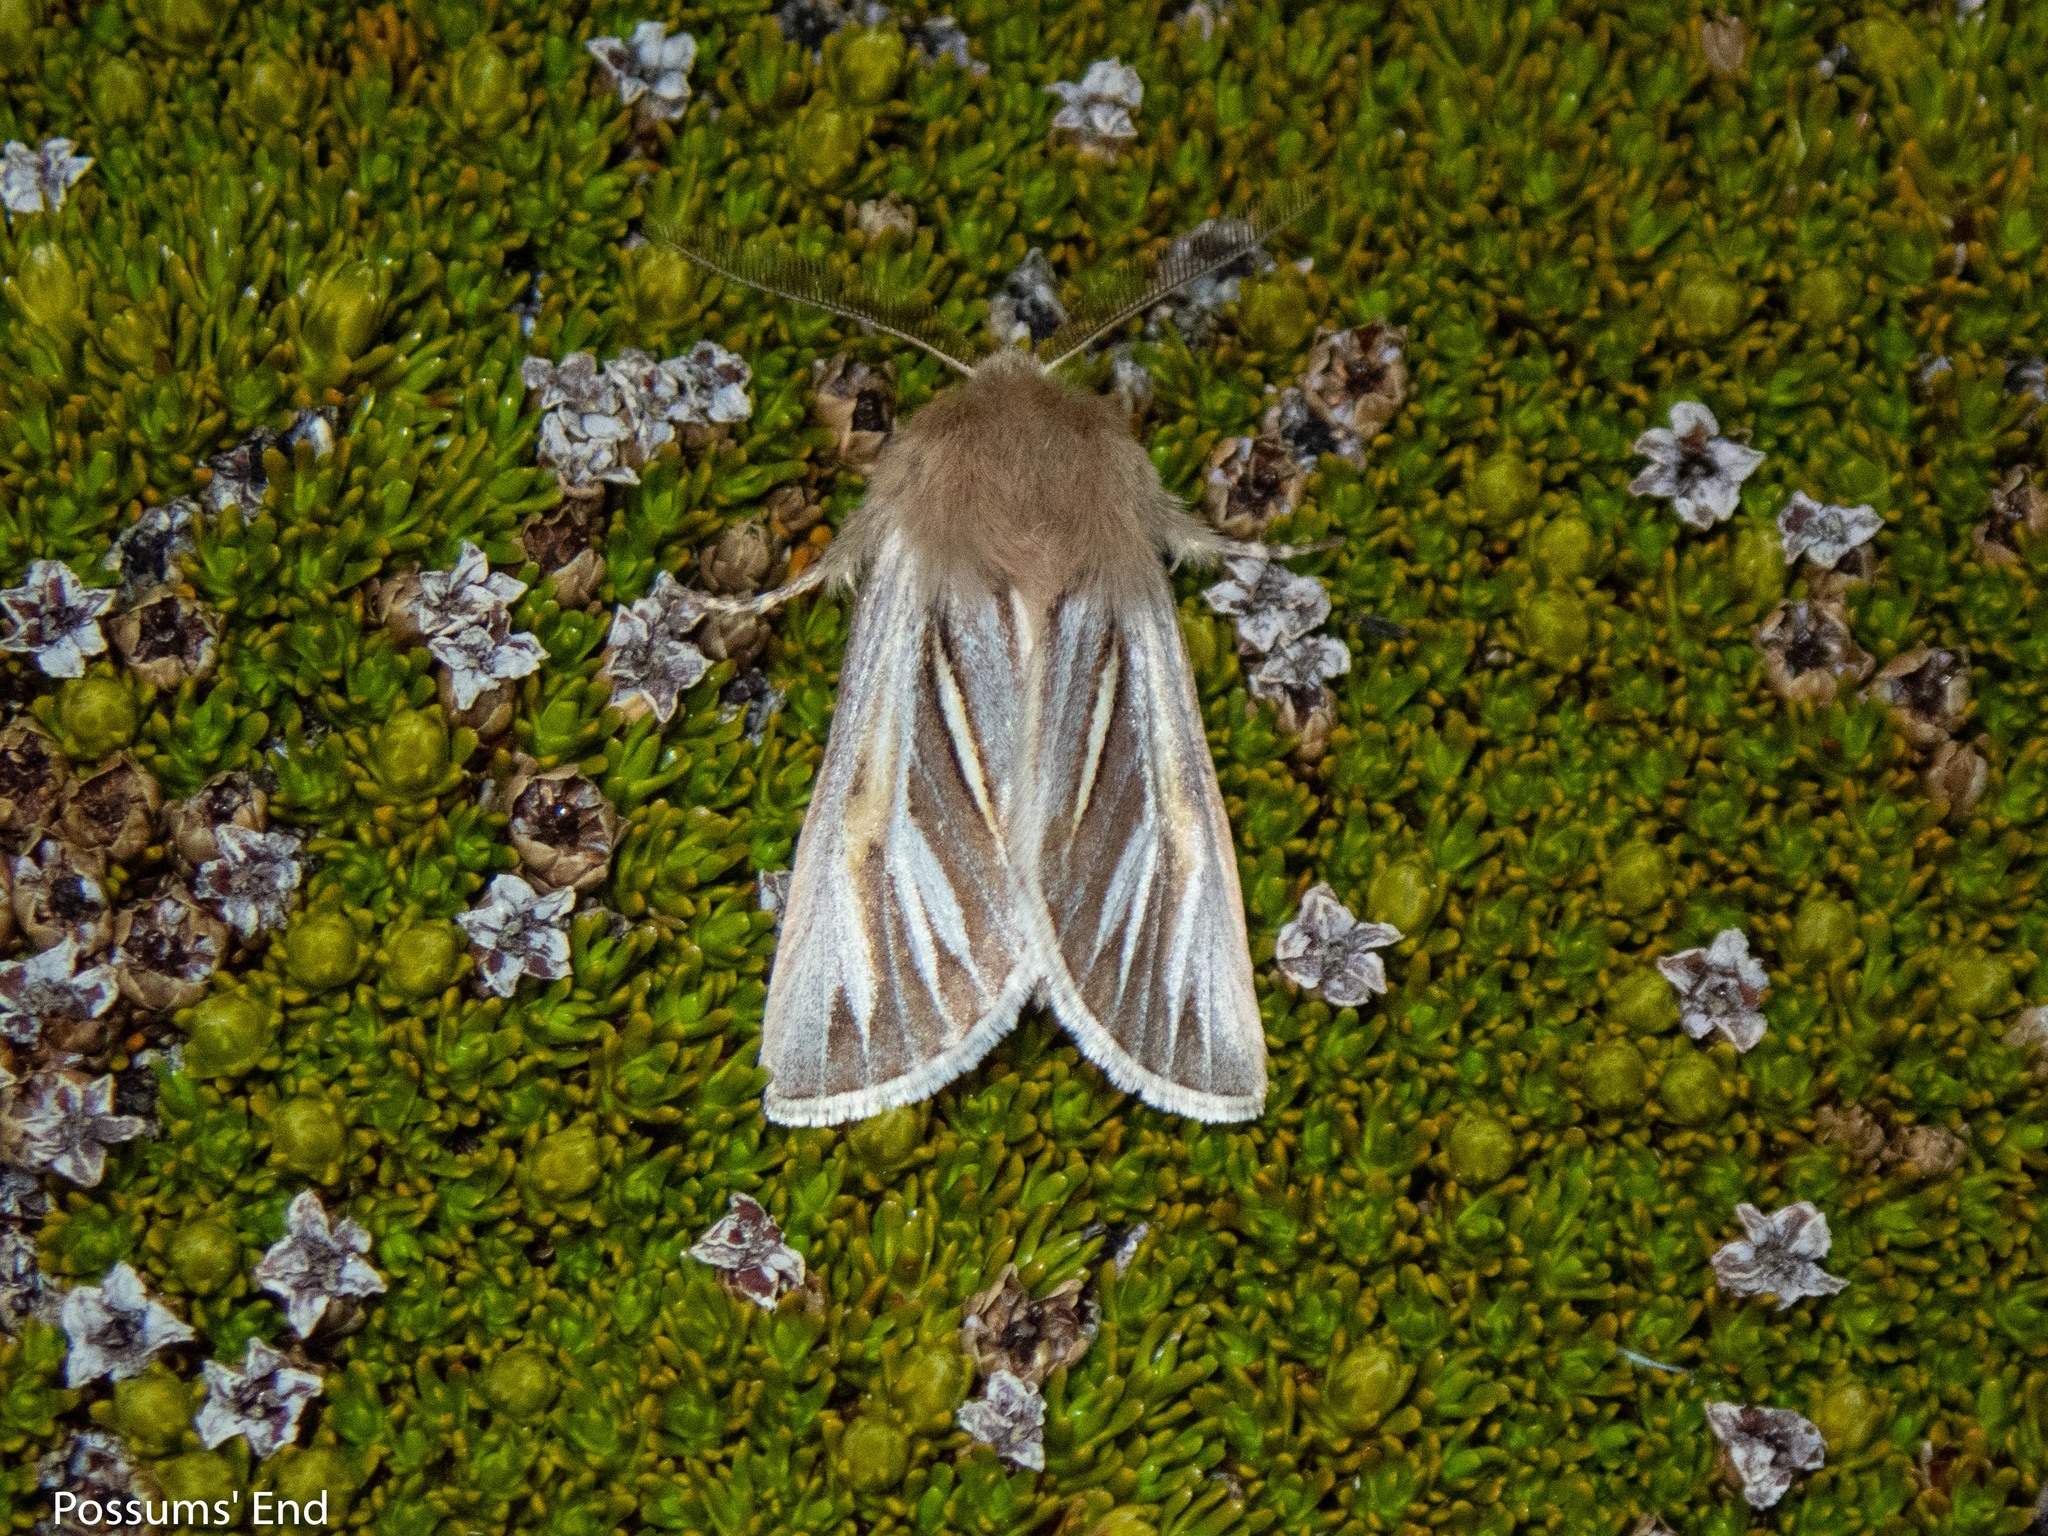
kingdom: Animalia
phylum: Arthropoda
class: Insecta
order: Lepidoptera
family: Noctuidae
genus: Ichneutica
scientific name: Ichneutica caraunias
